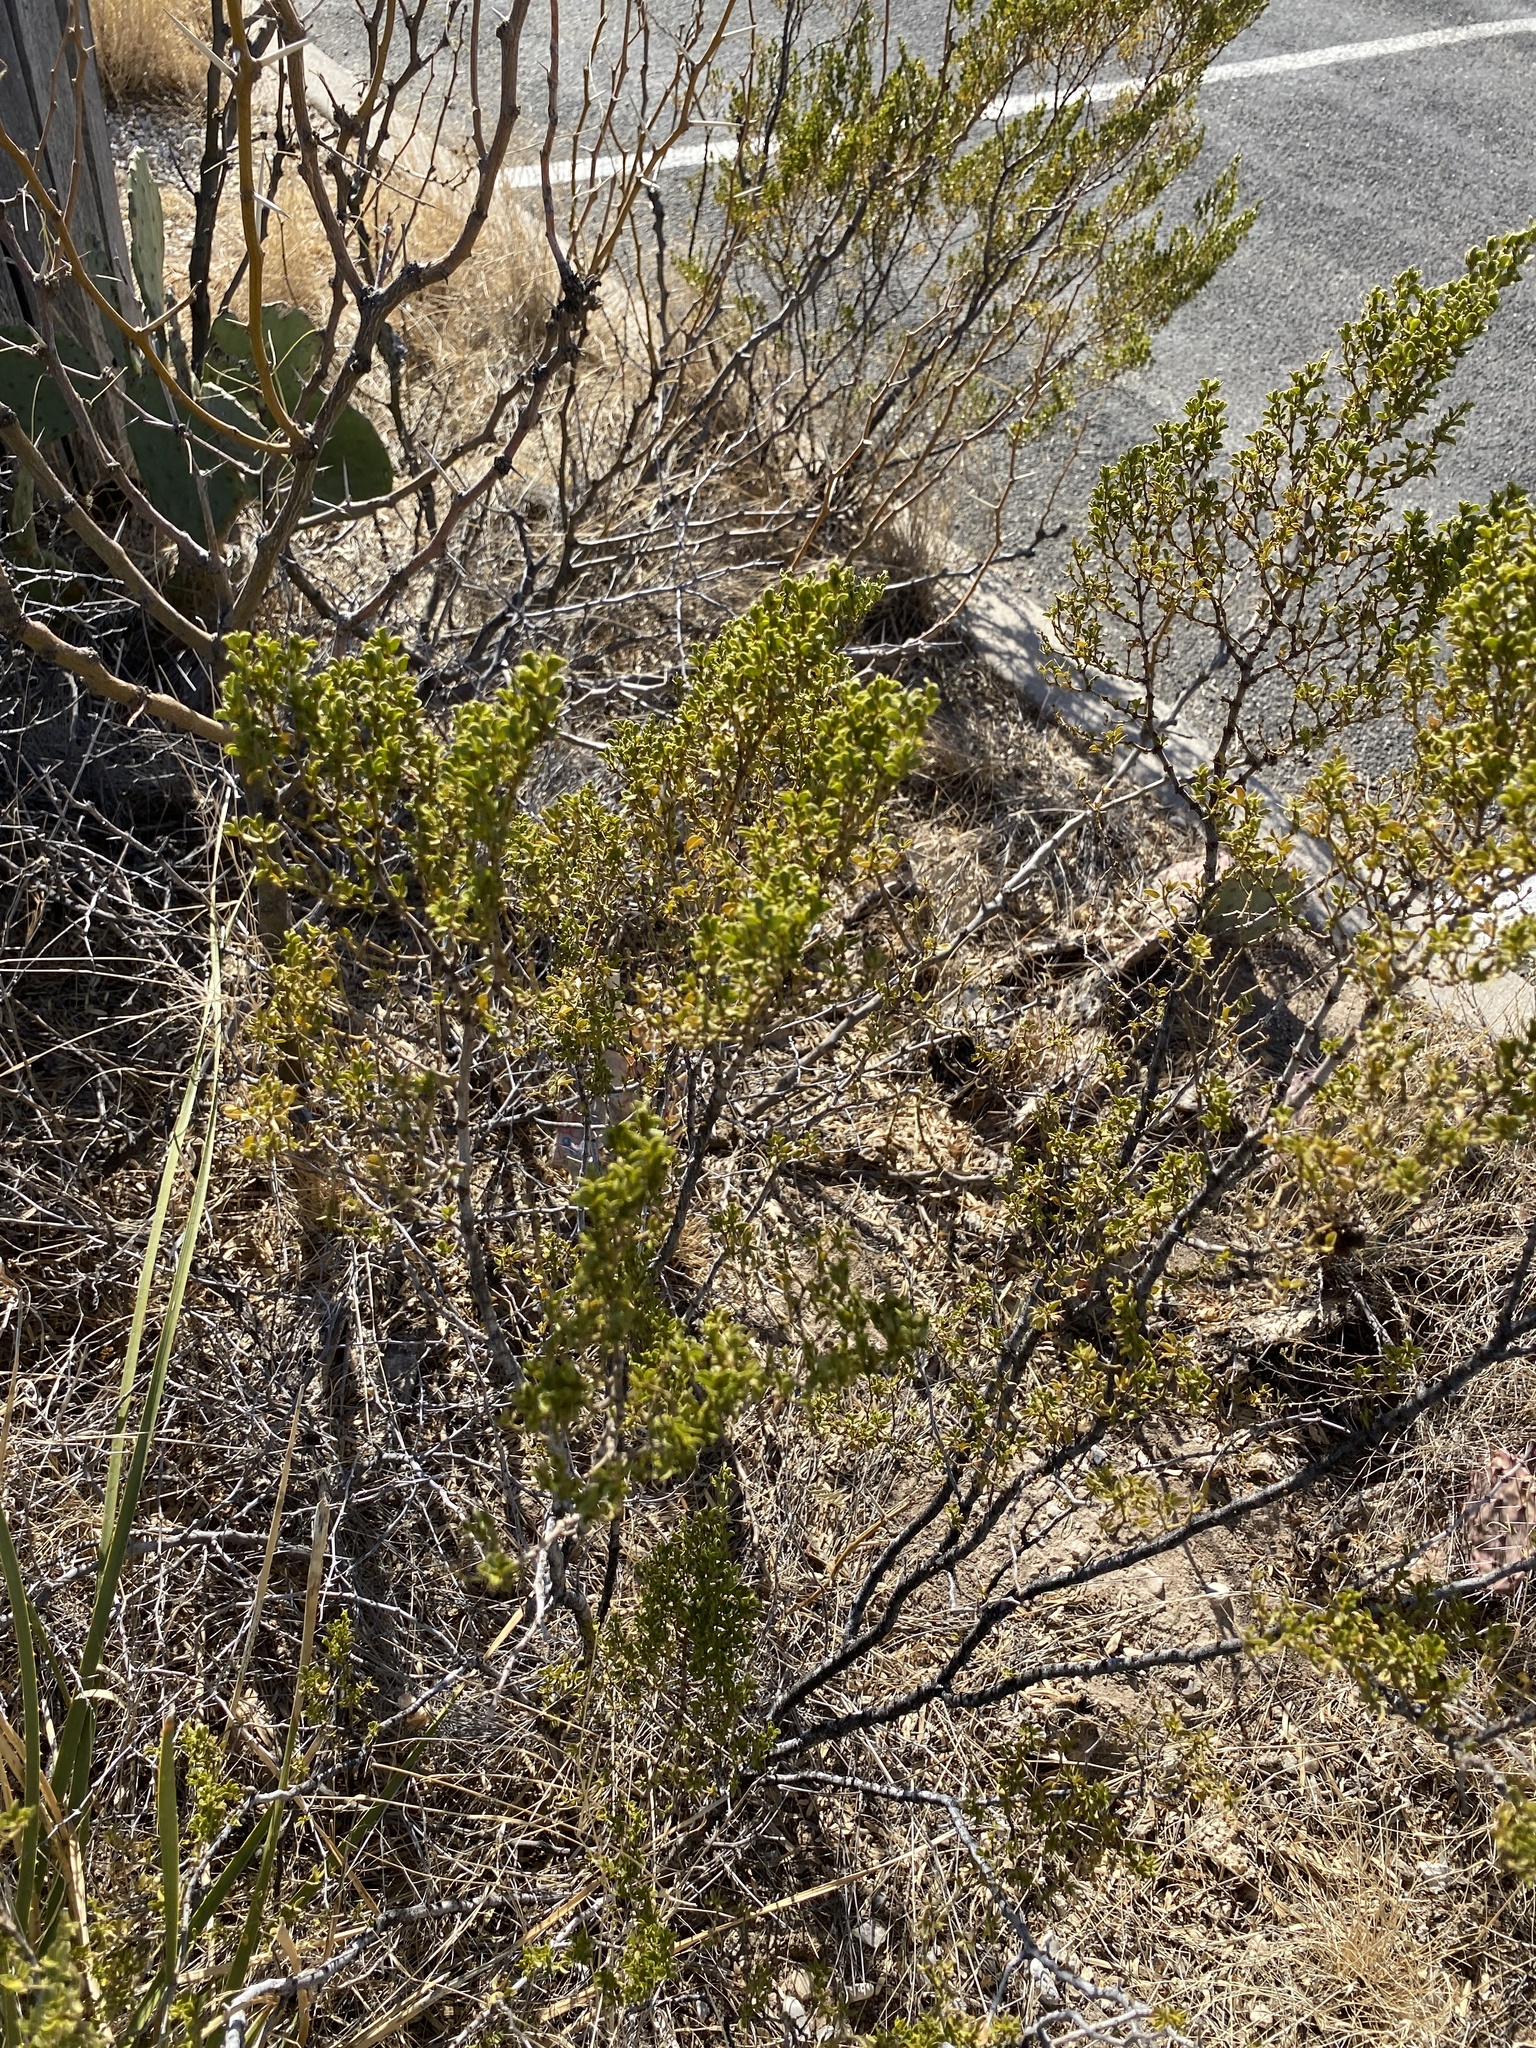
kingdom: Plantae
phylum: Tracheophyta
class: Magnoliopsida
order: Zygophyllales
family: Zygophyllaceae
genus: Larrea
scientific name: Larrea tridentata
